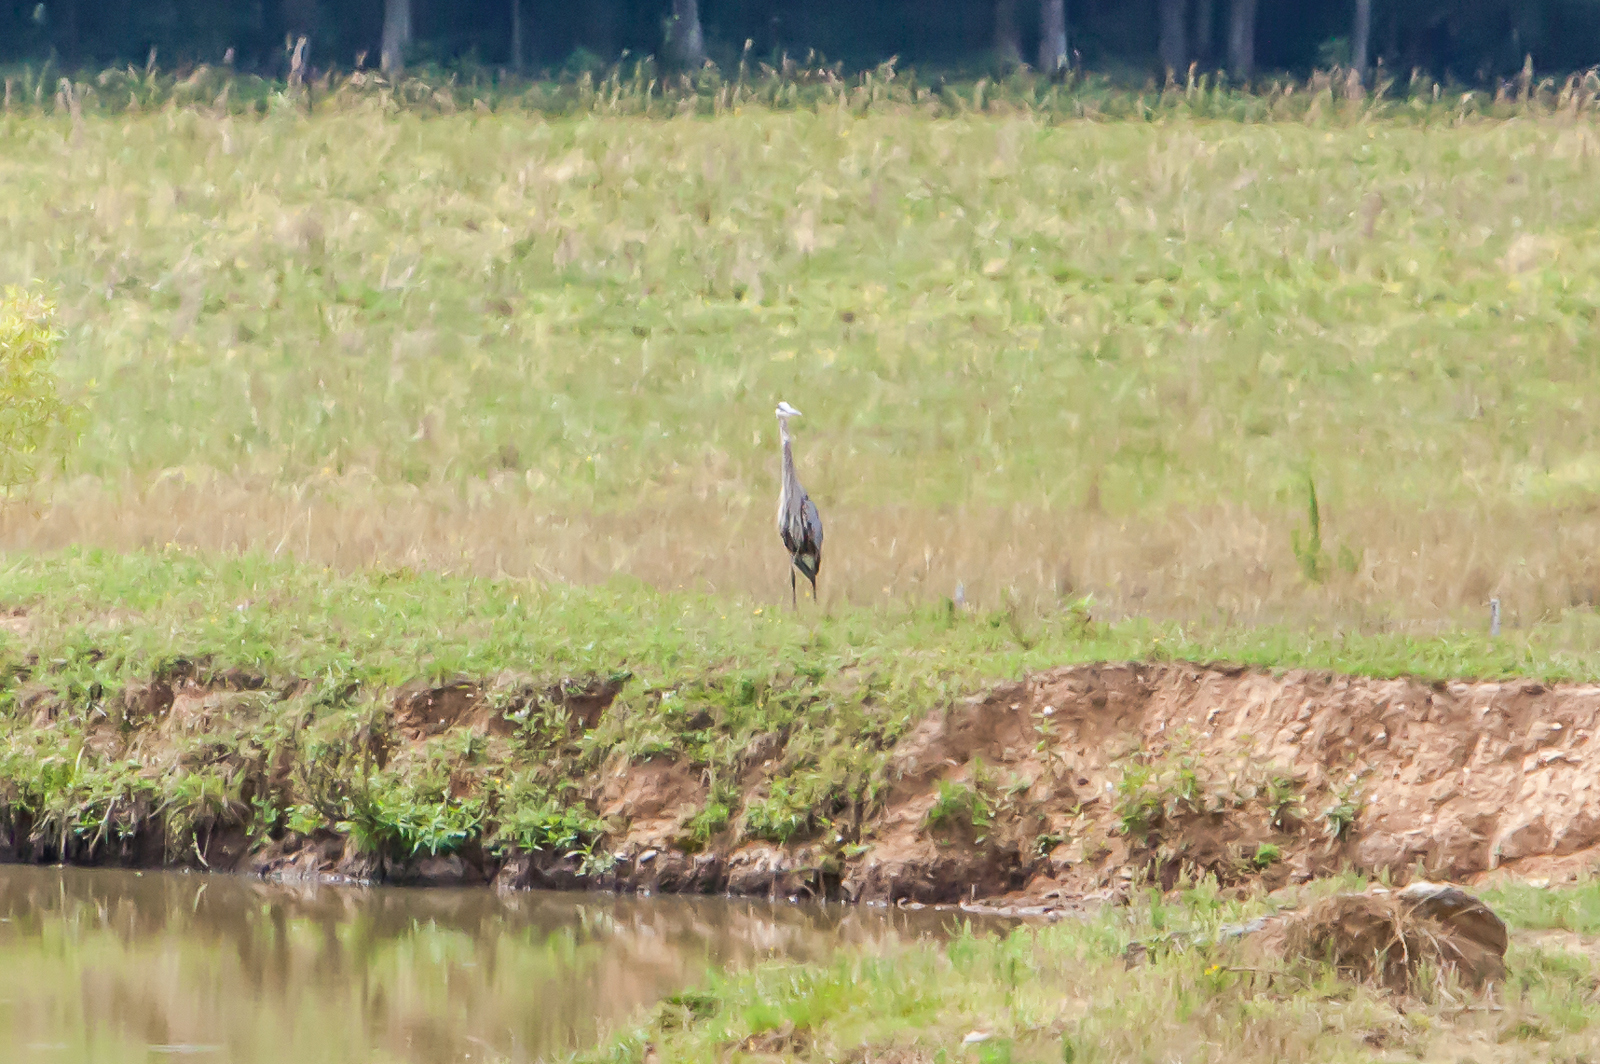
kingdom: Animalia
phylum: Chordata
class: Aves
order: Pelecaniformes
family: Ardeidae
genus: Ardea
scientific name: Ardea herodias
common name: Great blue heron
